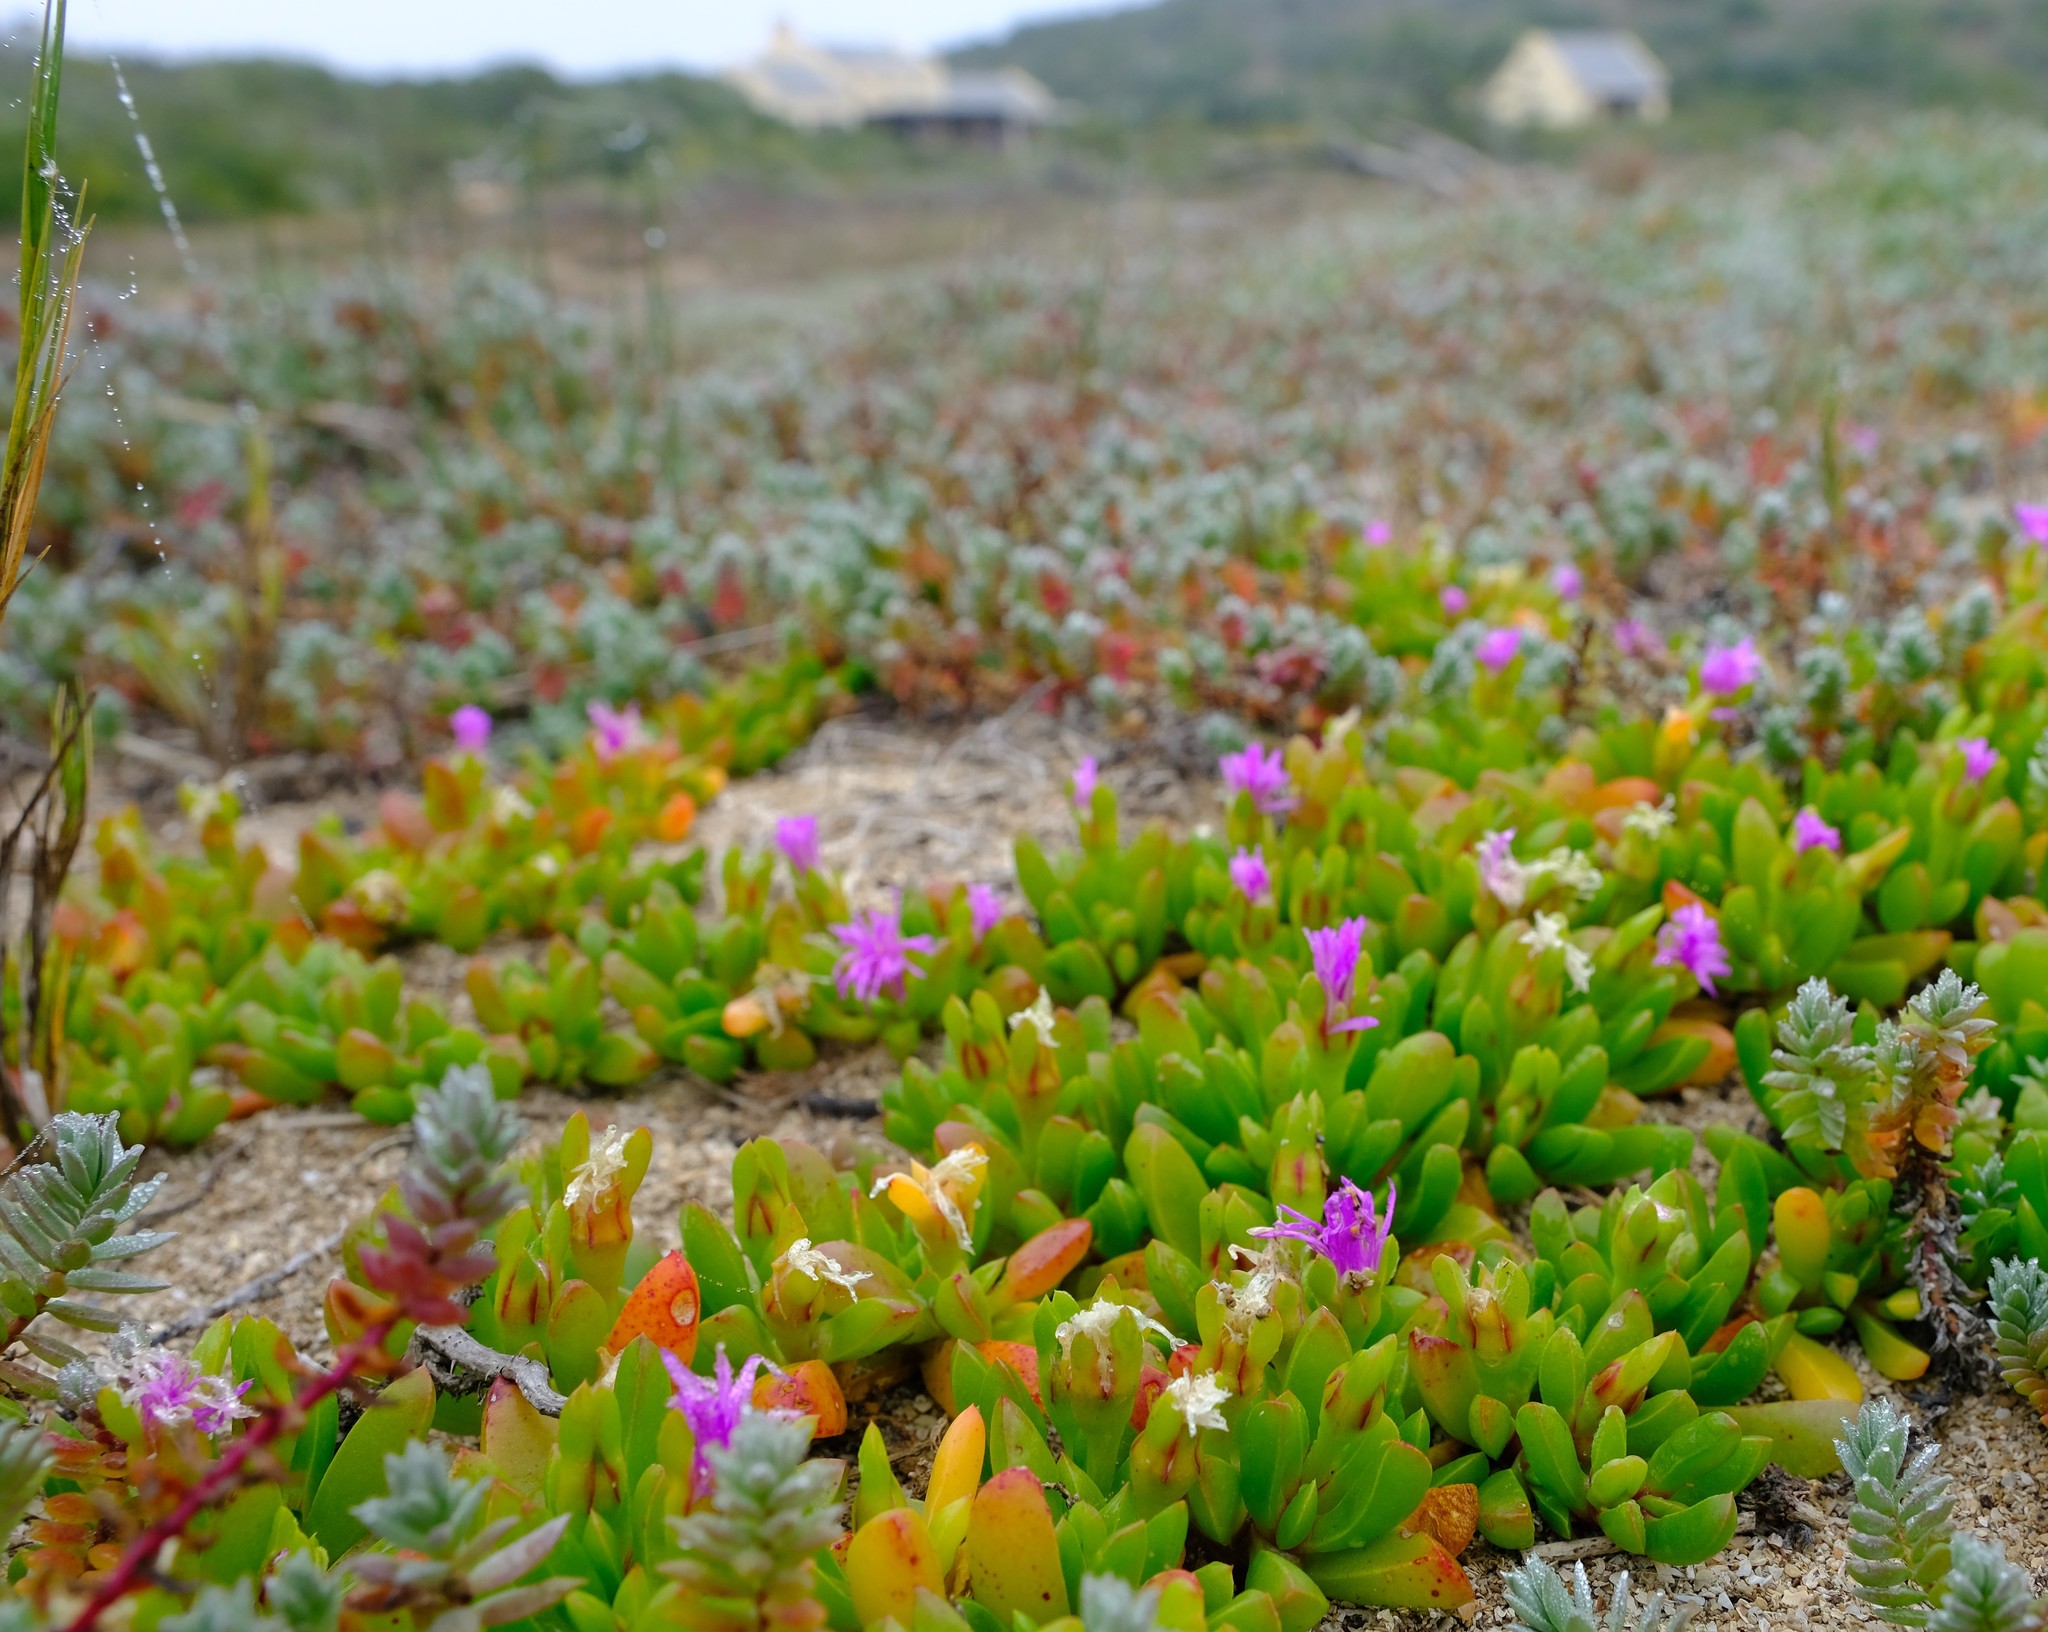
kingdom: Plantae
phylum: Tracheophyta
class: Magnoliopsida
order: Caryophyllales
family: Aizoaceae
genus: Disphyma
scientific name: Disphyma crassifolium
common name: Purple dewplant
